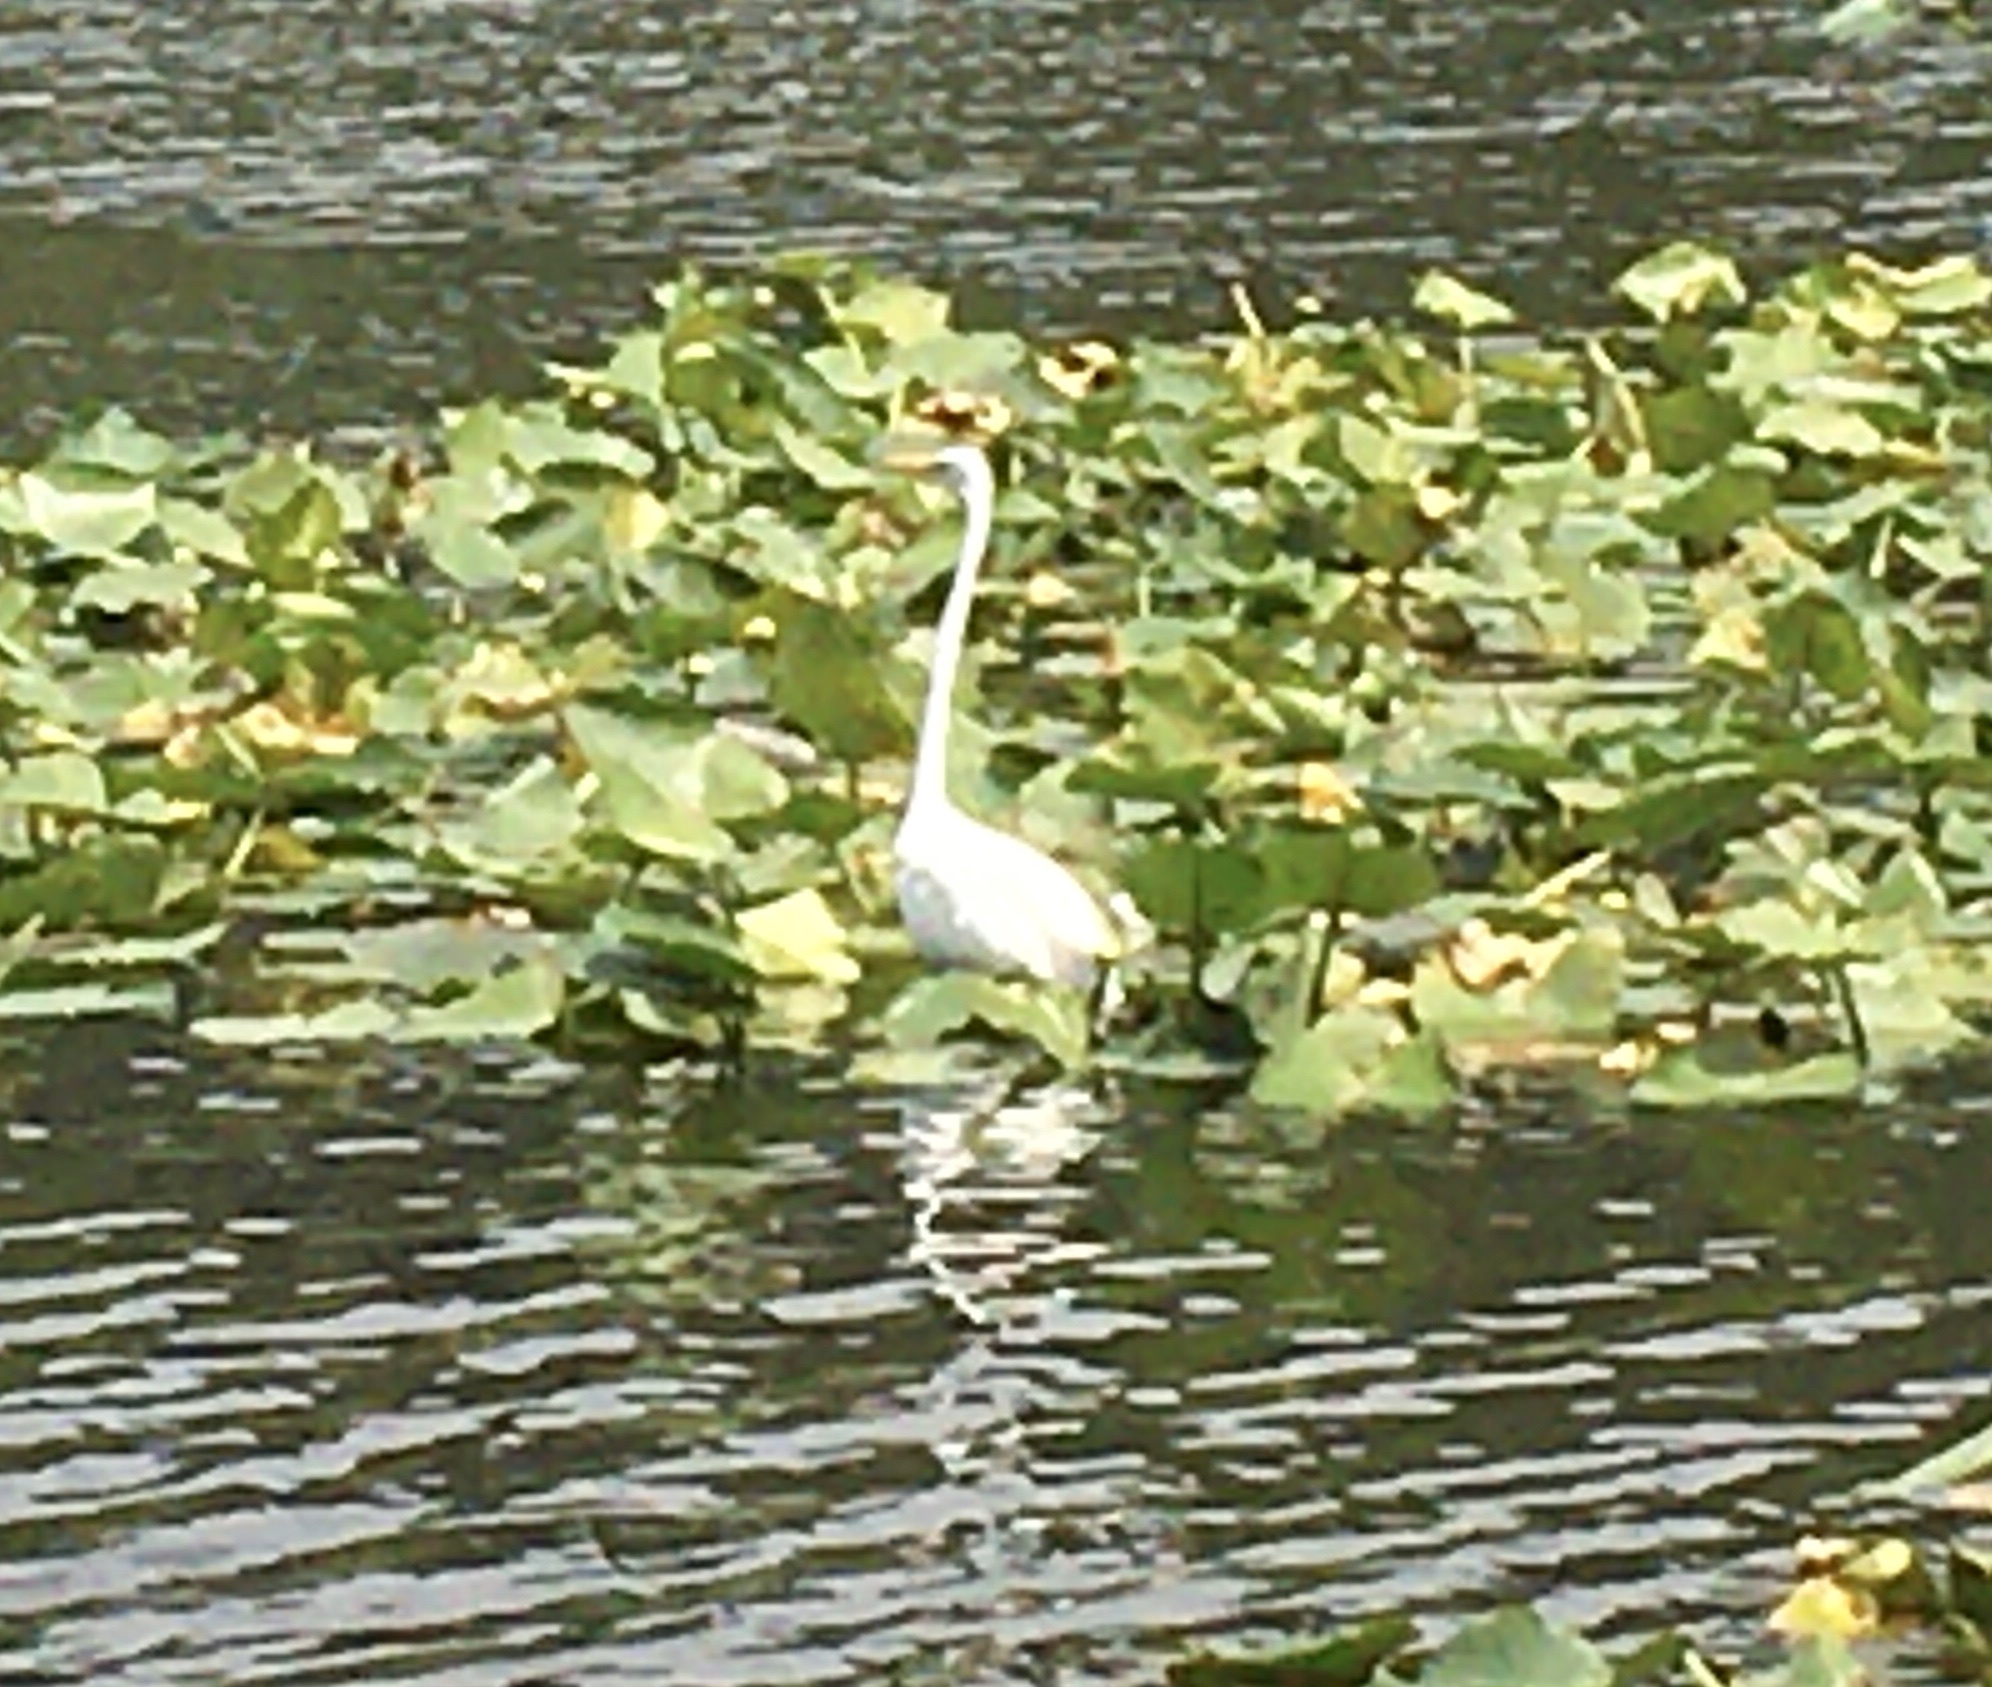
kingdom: Animalia
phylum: Chordata
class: Aves
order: Pelecaniformes
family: Ardeidae
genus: Ardea
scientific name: Ardea alba
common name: Great egret
